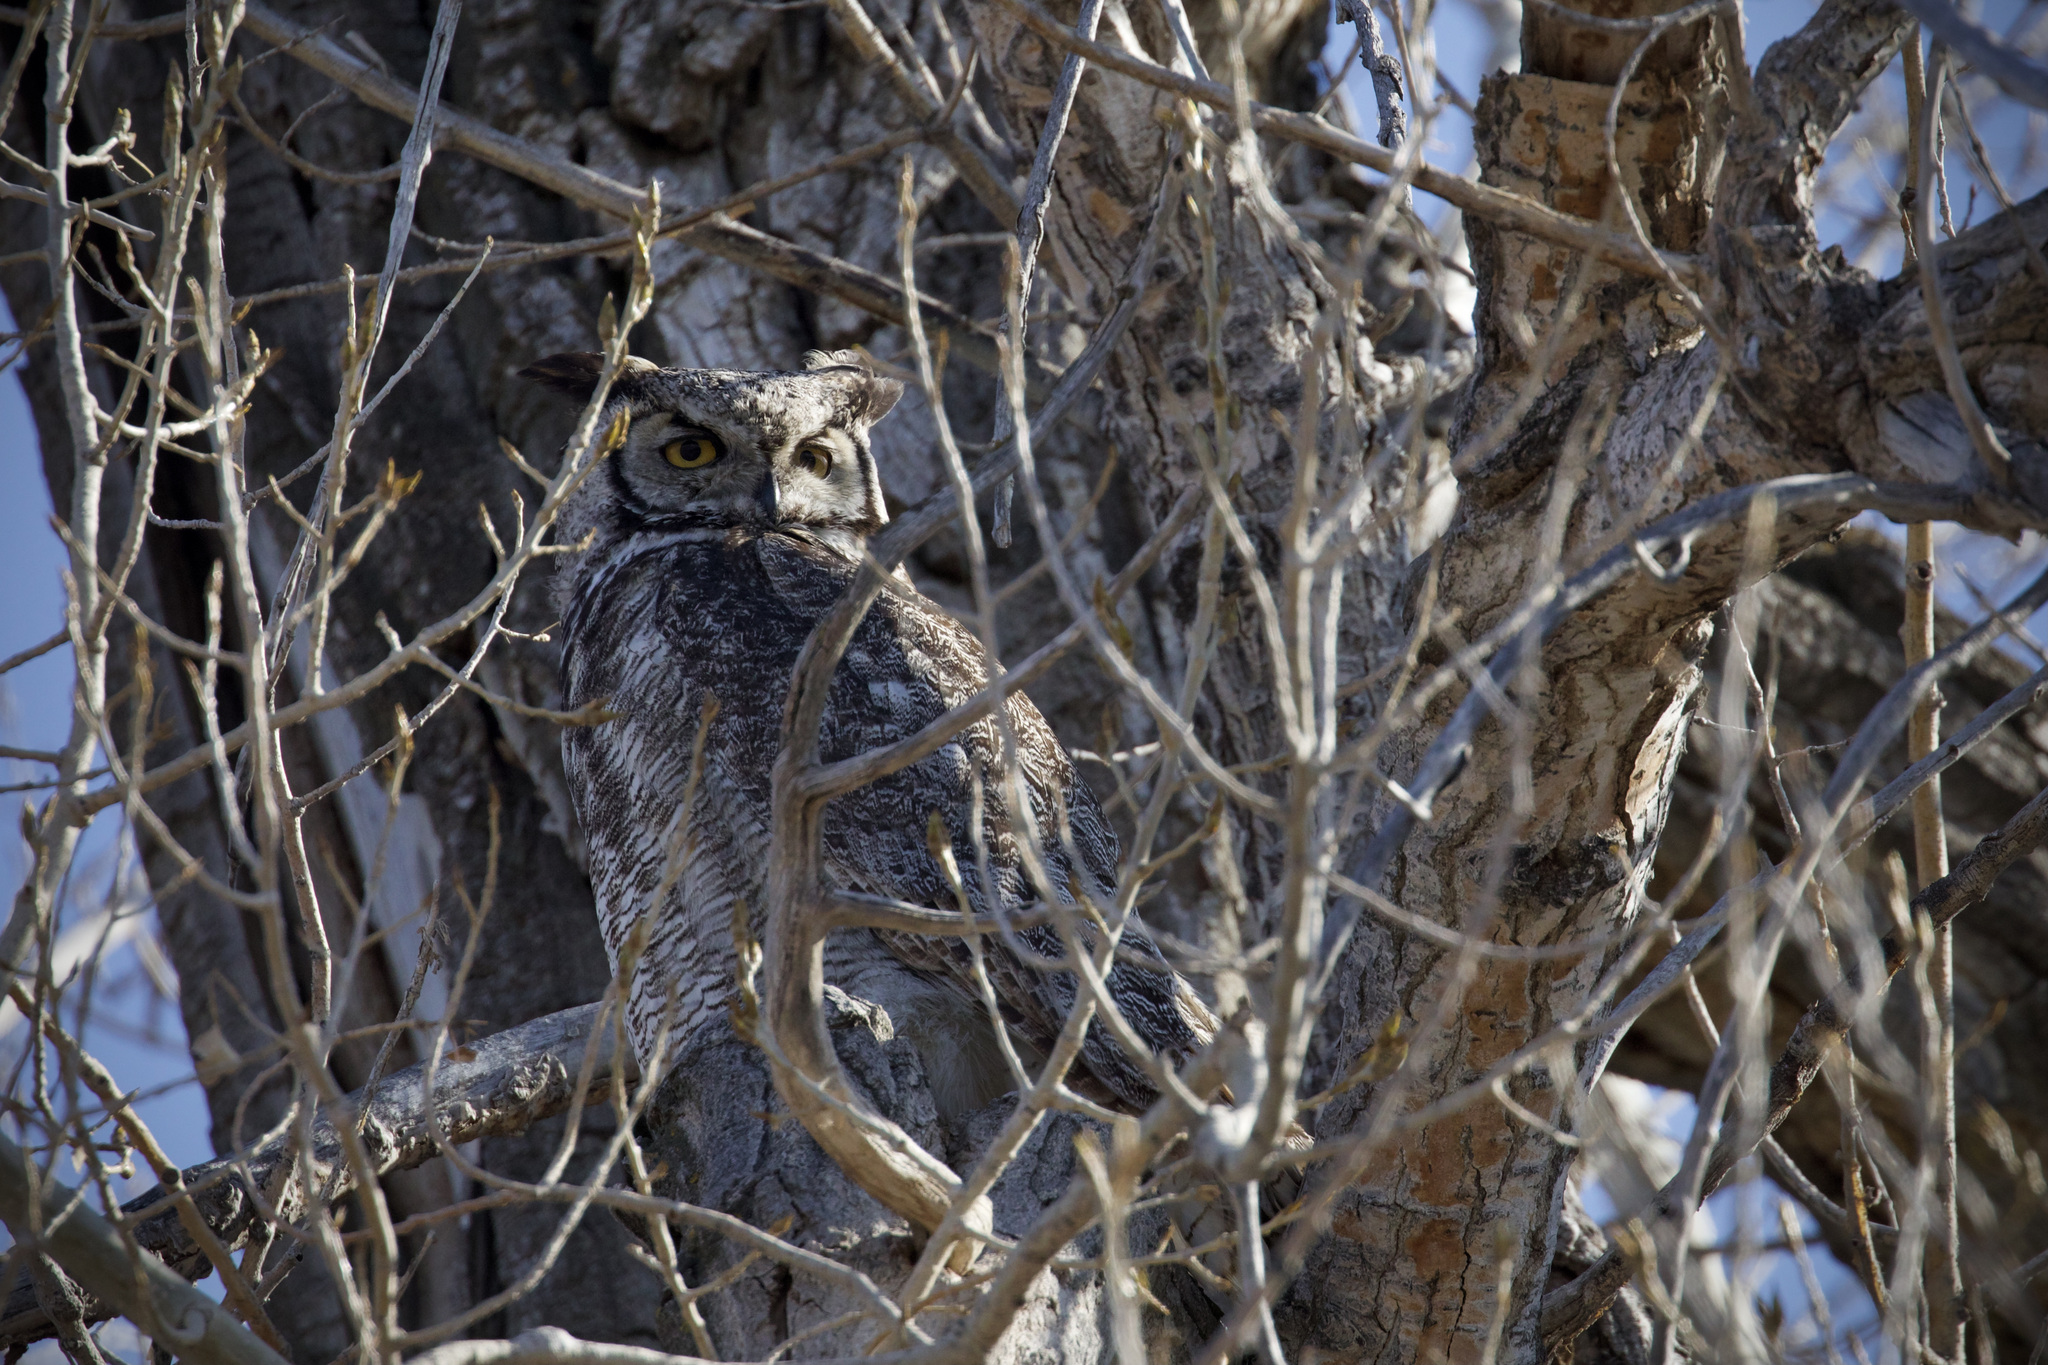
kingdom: Animalia
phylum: Chordata
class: Aves
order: Strigiformes
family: Strigidae
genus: Bubo
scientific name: Bubo virginianus
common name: Great horned owl
